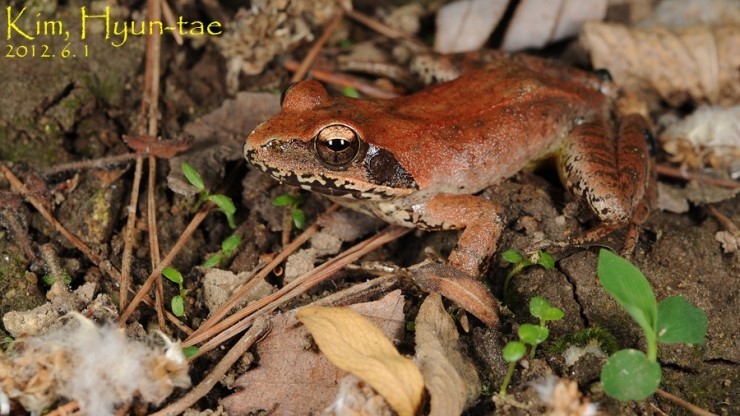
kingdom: Animalia
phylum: Chordata
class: Amphibia
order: Anura
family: Ranidae
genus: Rana
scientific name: Rana huanrenensis
